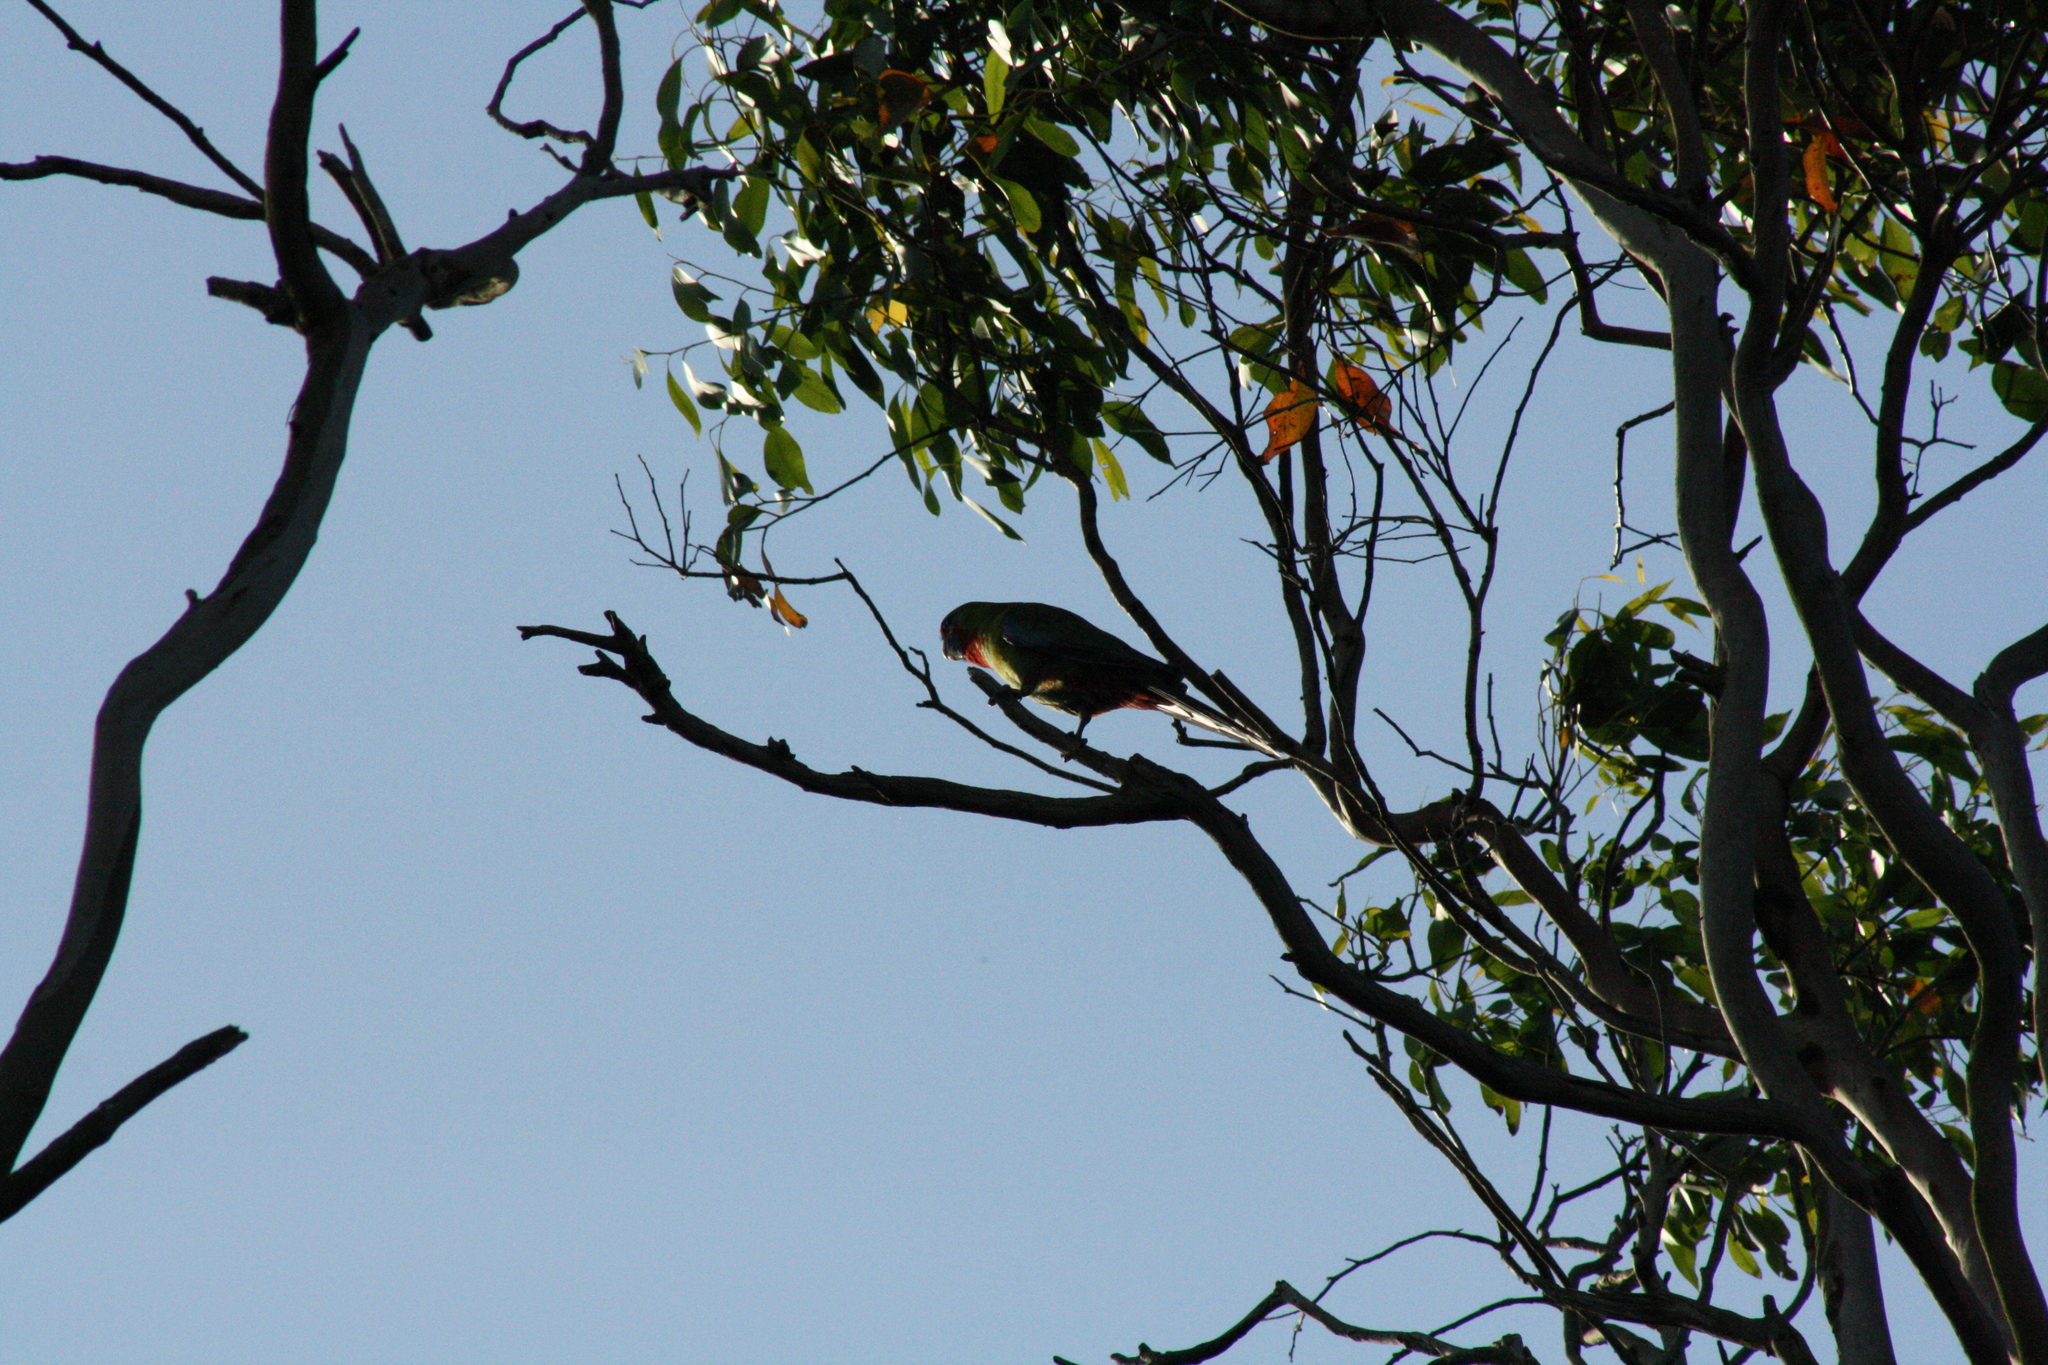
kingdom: Animalia
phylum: Chordata
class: Aves
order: Psittaciformes
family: Psittacidae
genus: Platycercus
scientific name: Platycercus elegans
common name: Crimson rosella
